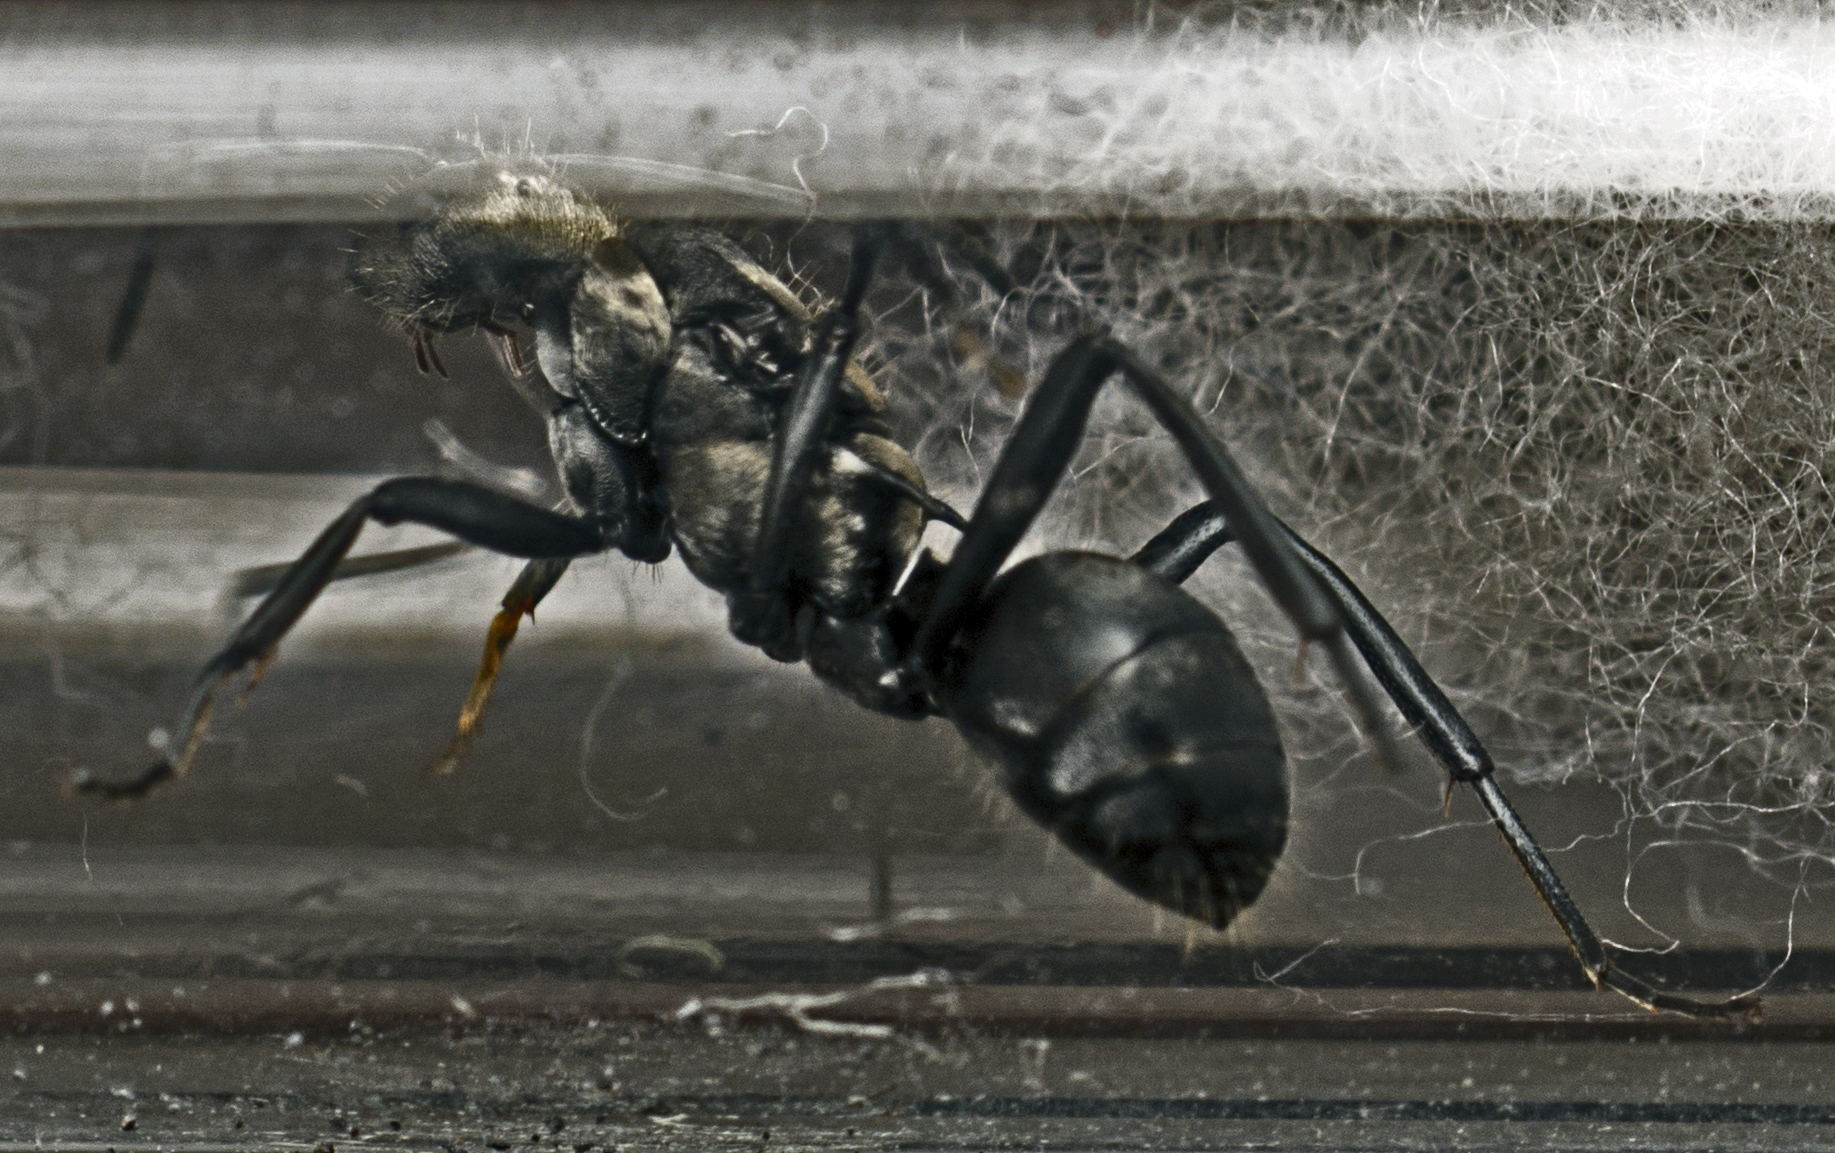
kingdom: Animalia
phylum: Arthropoda
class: Insecta
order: Hymenoptera
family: Formicidae
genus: Polyrhachis
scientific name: Polyrhachis daemeli
